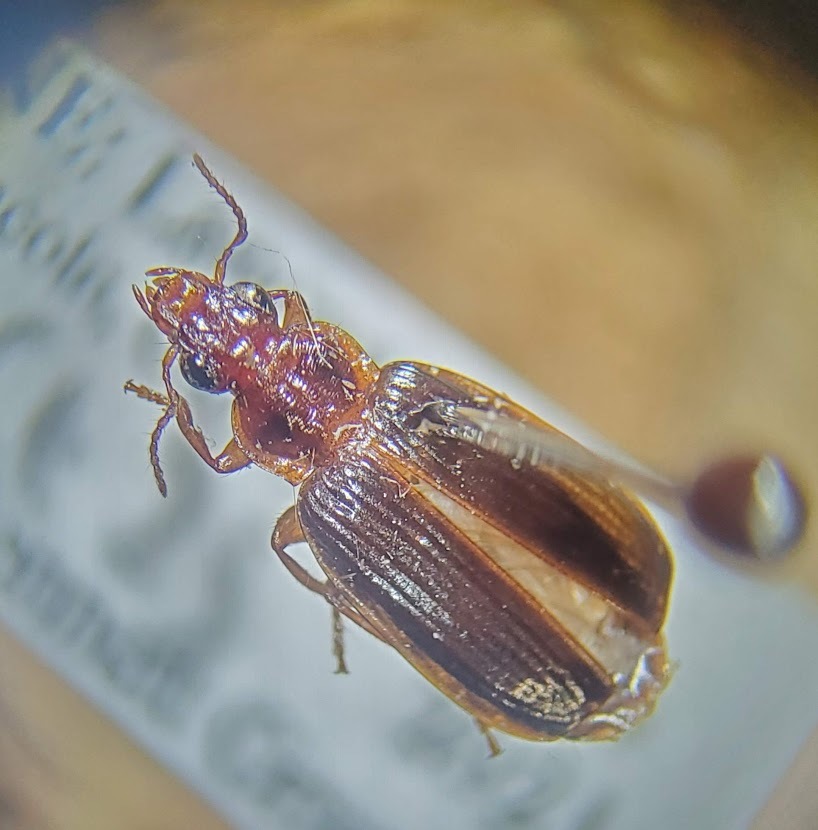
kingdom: Animalia
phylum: Arthropoda
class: Insecta
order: Coleoptera
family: Carabidae
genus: Plochionus
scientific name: Plochionus timidus
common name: Timid harp ground beetle
